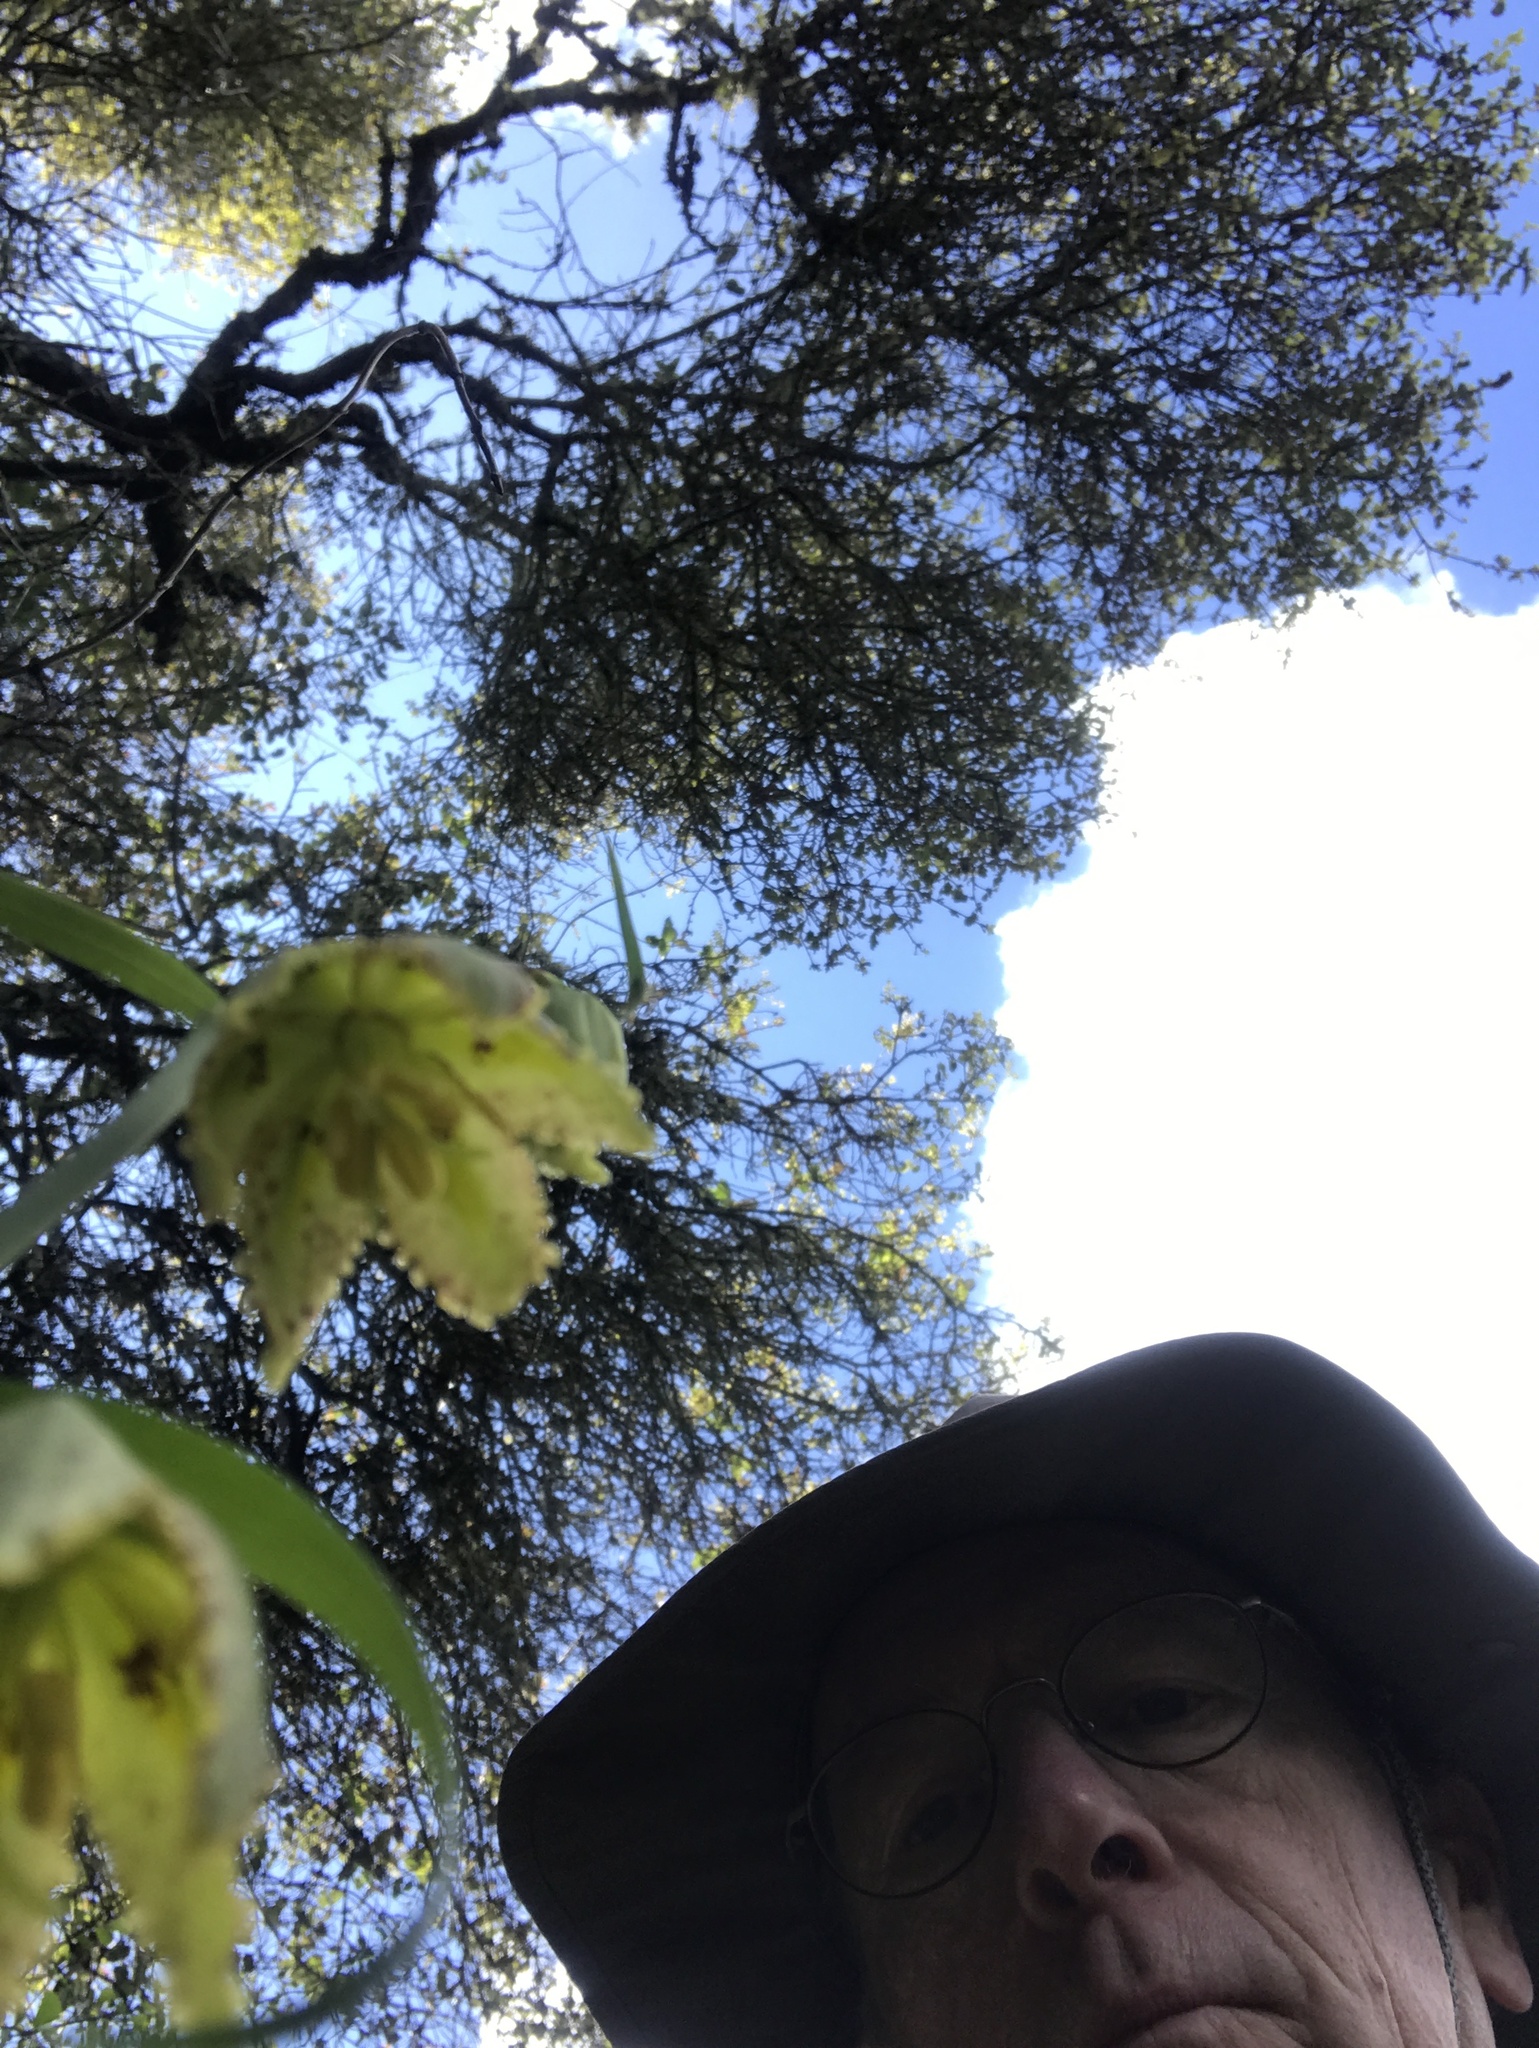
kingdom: Plantae
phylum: Tracheophyta
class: Liliopsida
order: Liliales
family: Liliaceae
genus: Fritillaria
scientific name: Fritillaria affinis
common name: Ojai fritillary
